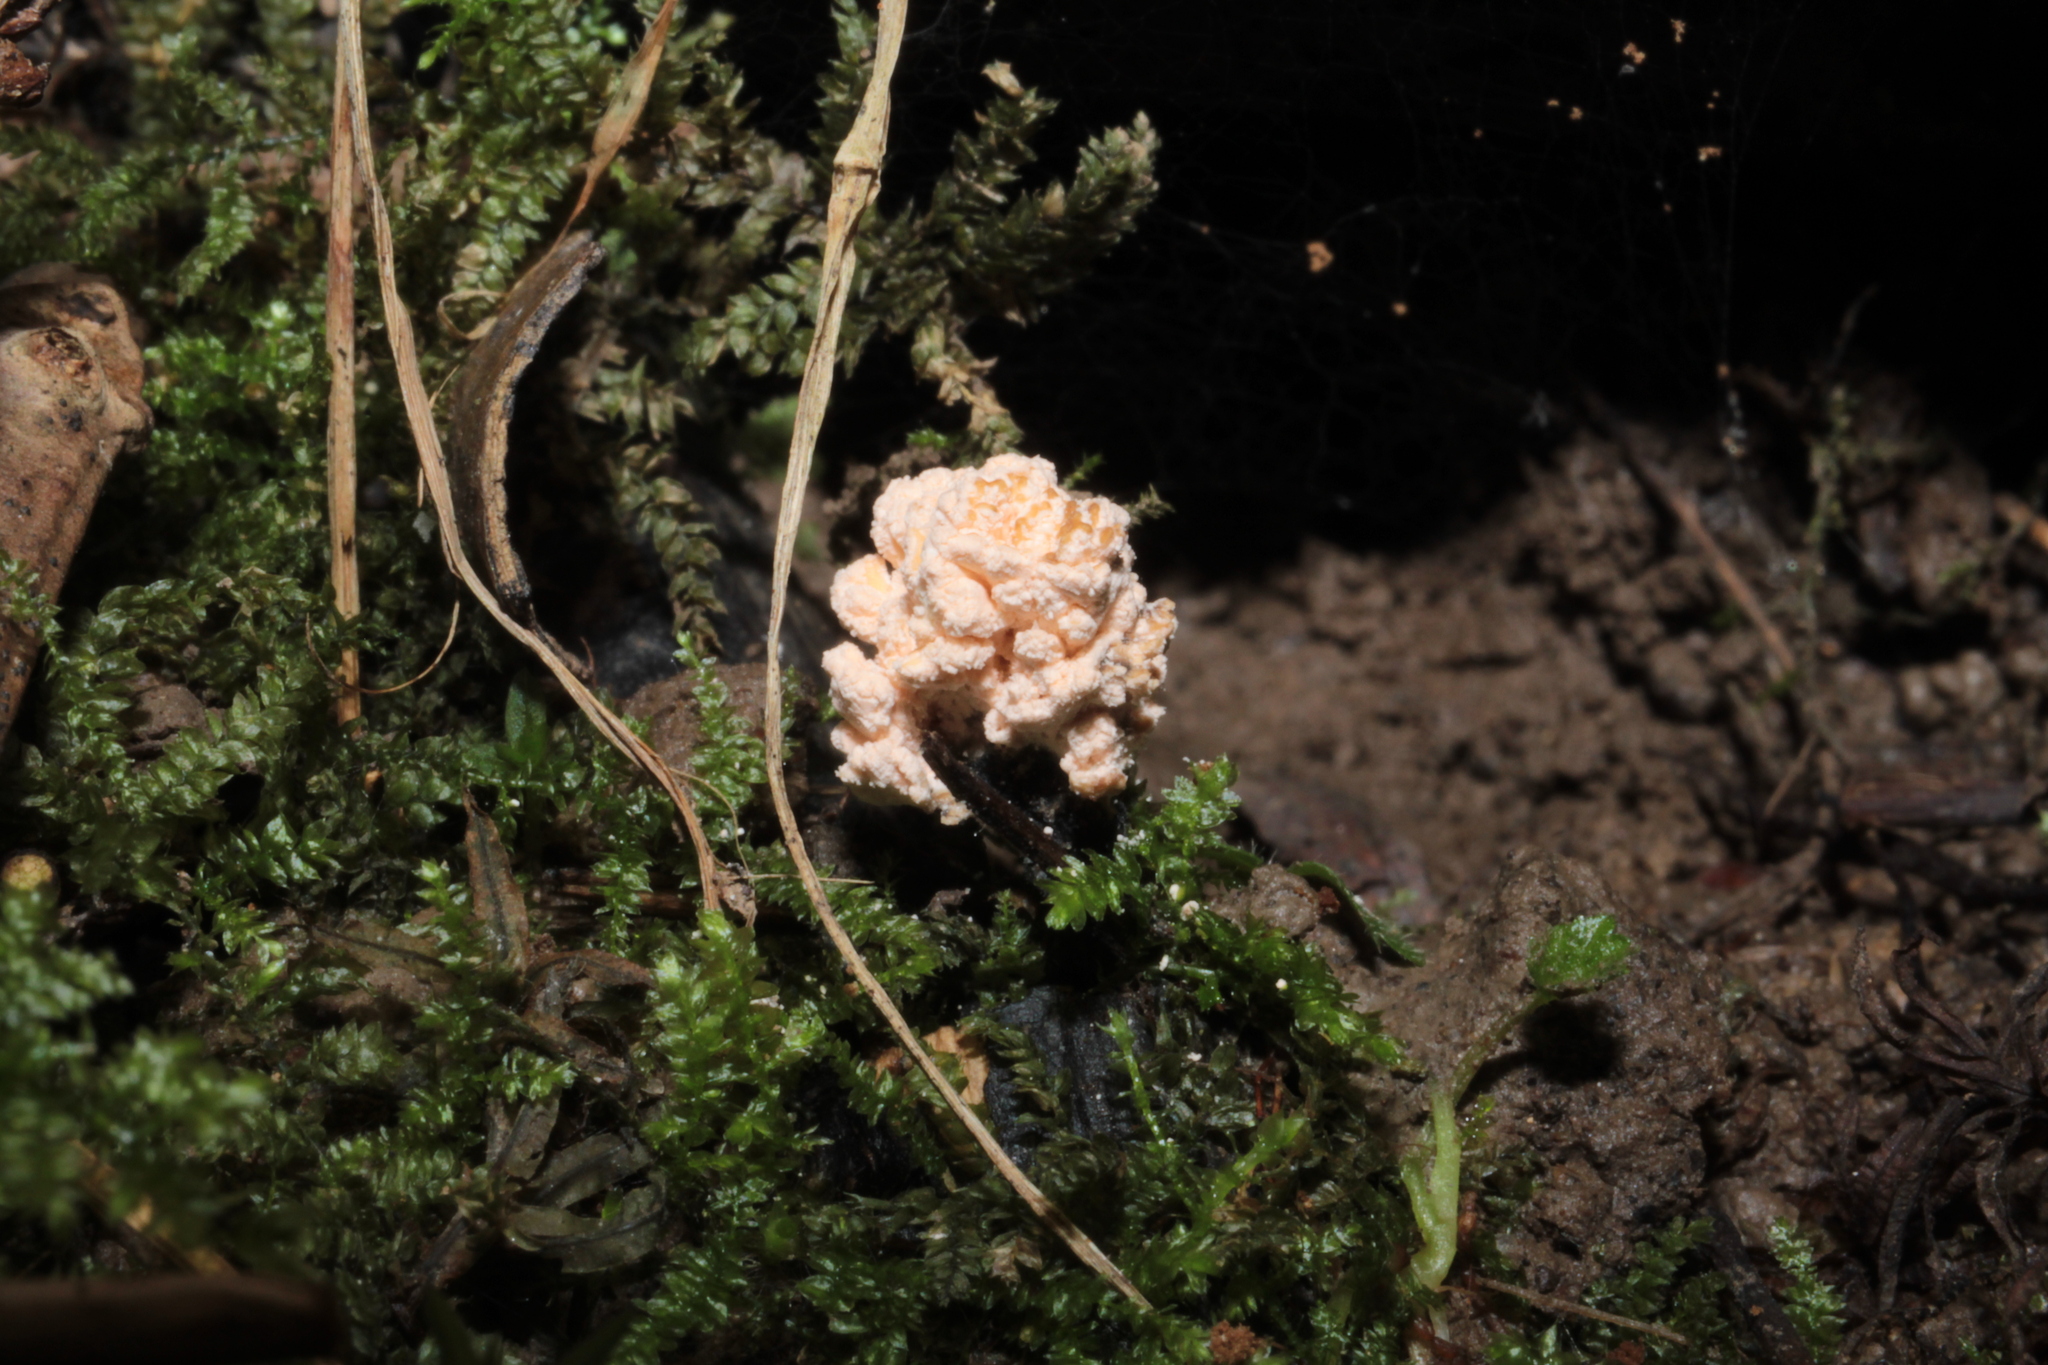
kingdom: Fungi
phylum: Ascomycota
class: Sordariomycetes
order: Xylariales
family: Xylariaceae
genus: Xylaria
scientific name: Xylaria cubensis
